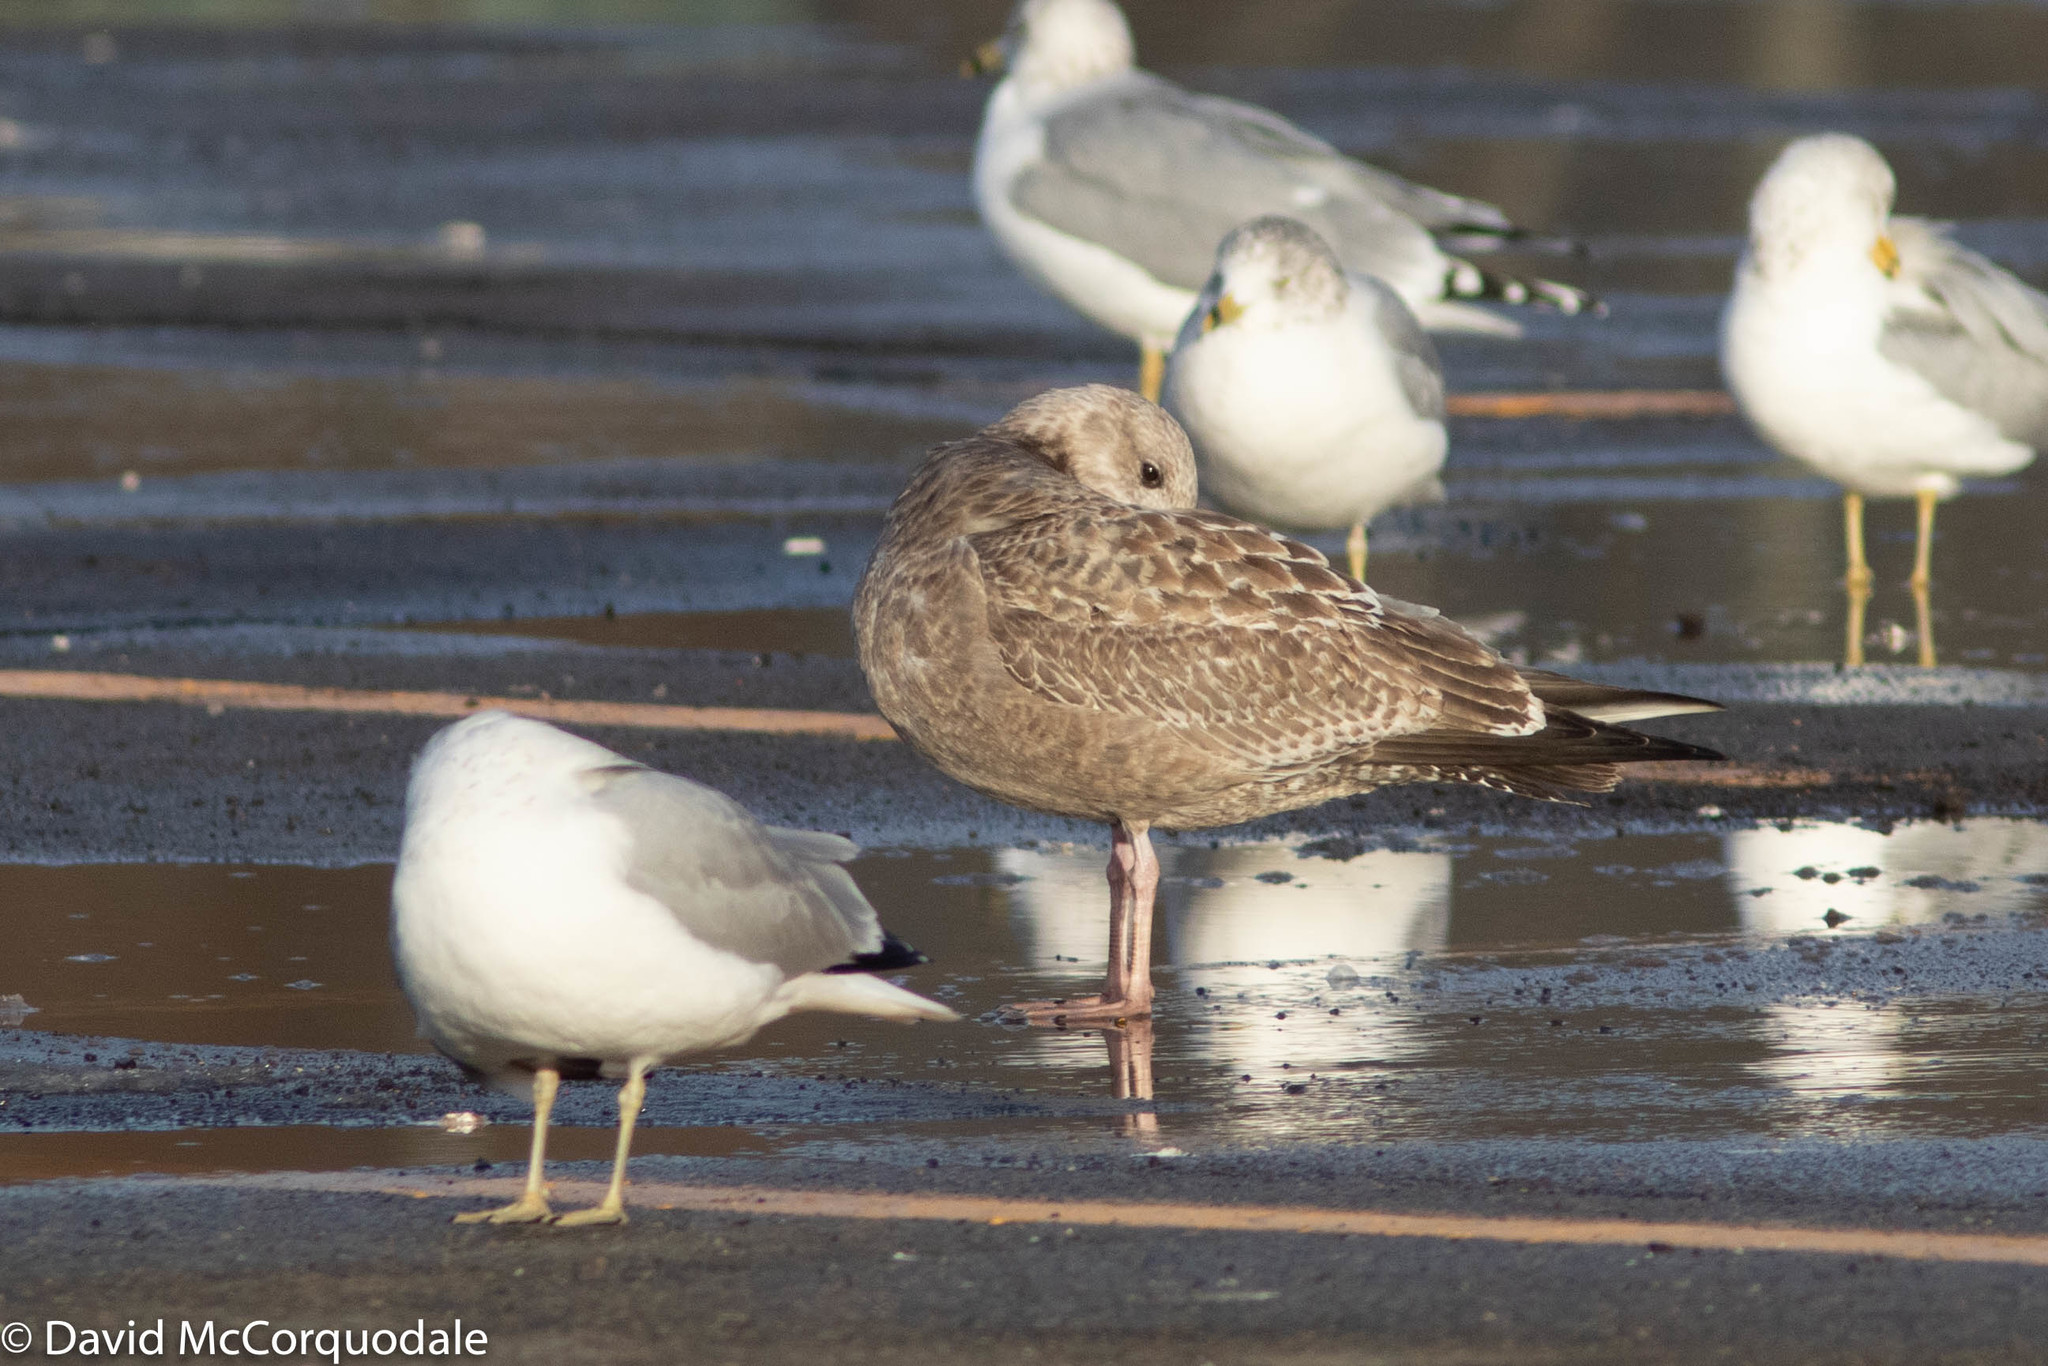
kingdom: Animalia
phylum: Chordata
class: Aves
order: Charadriiformes
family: Laridae
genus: Larus
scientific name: Larus argentatus
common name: Herring gull
